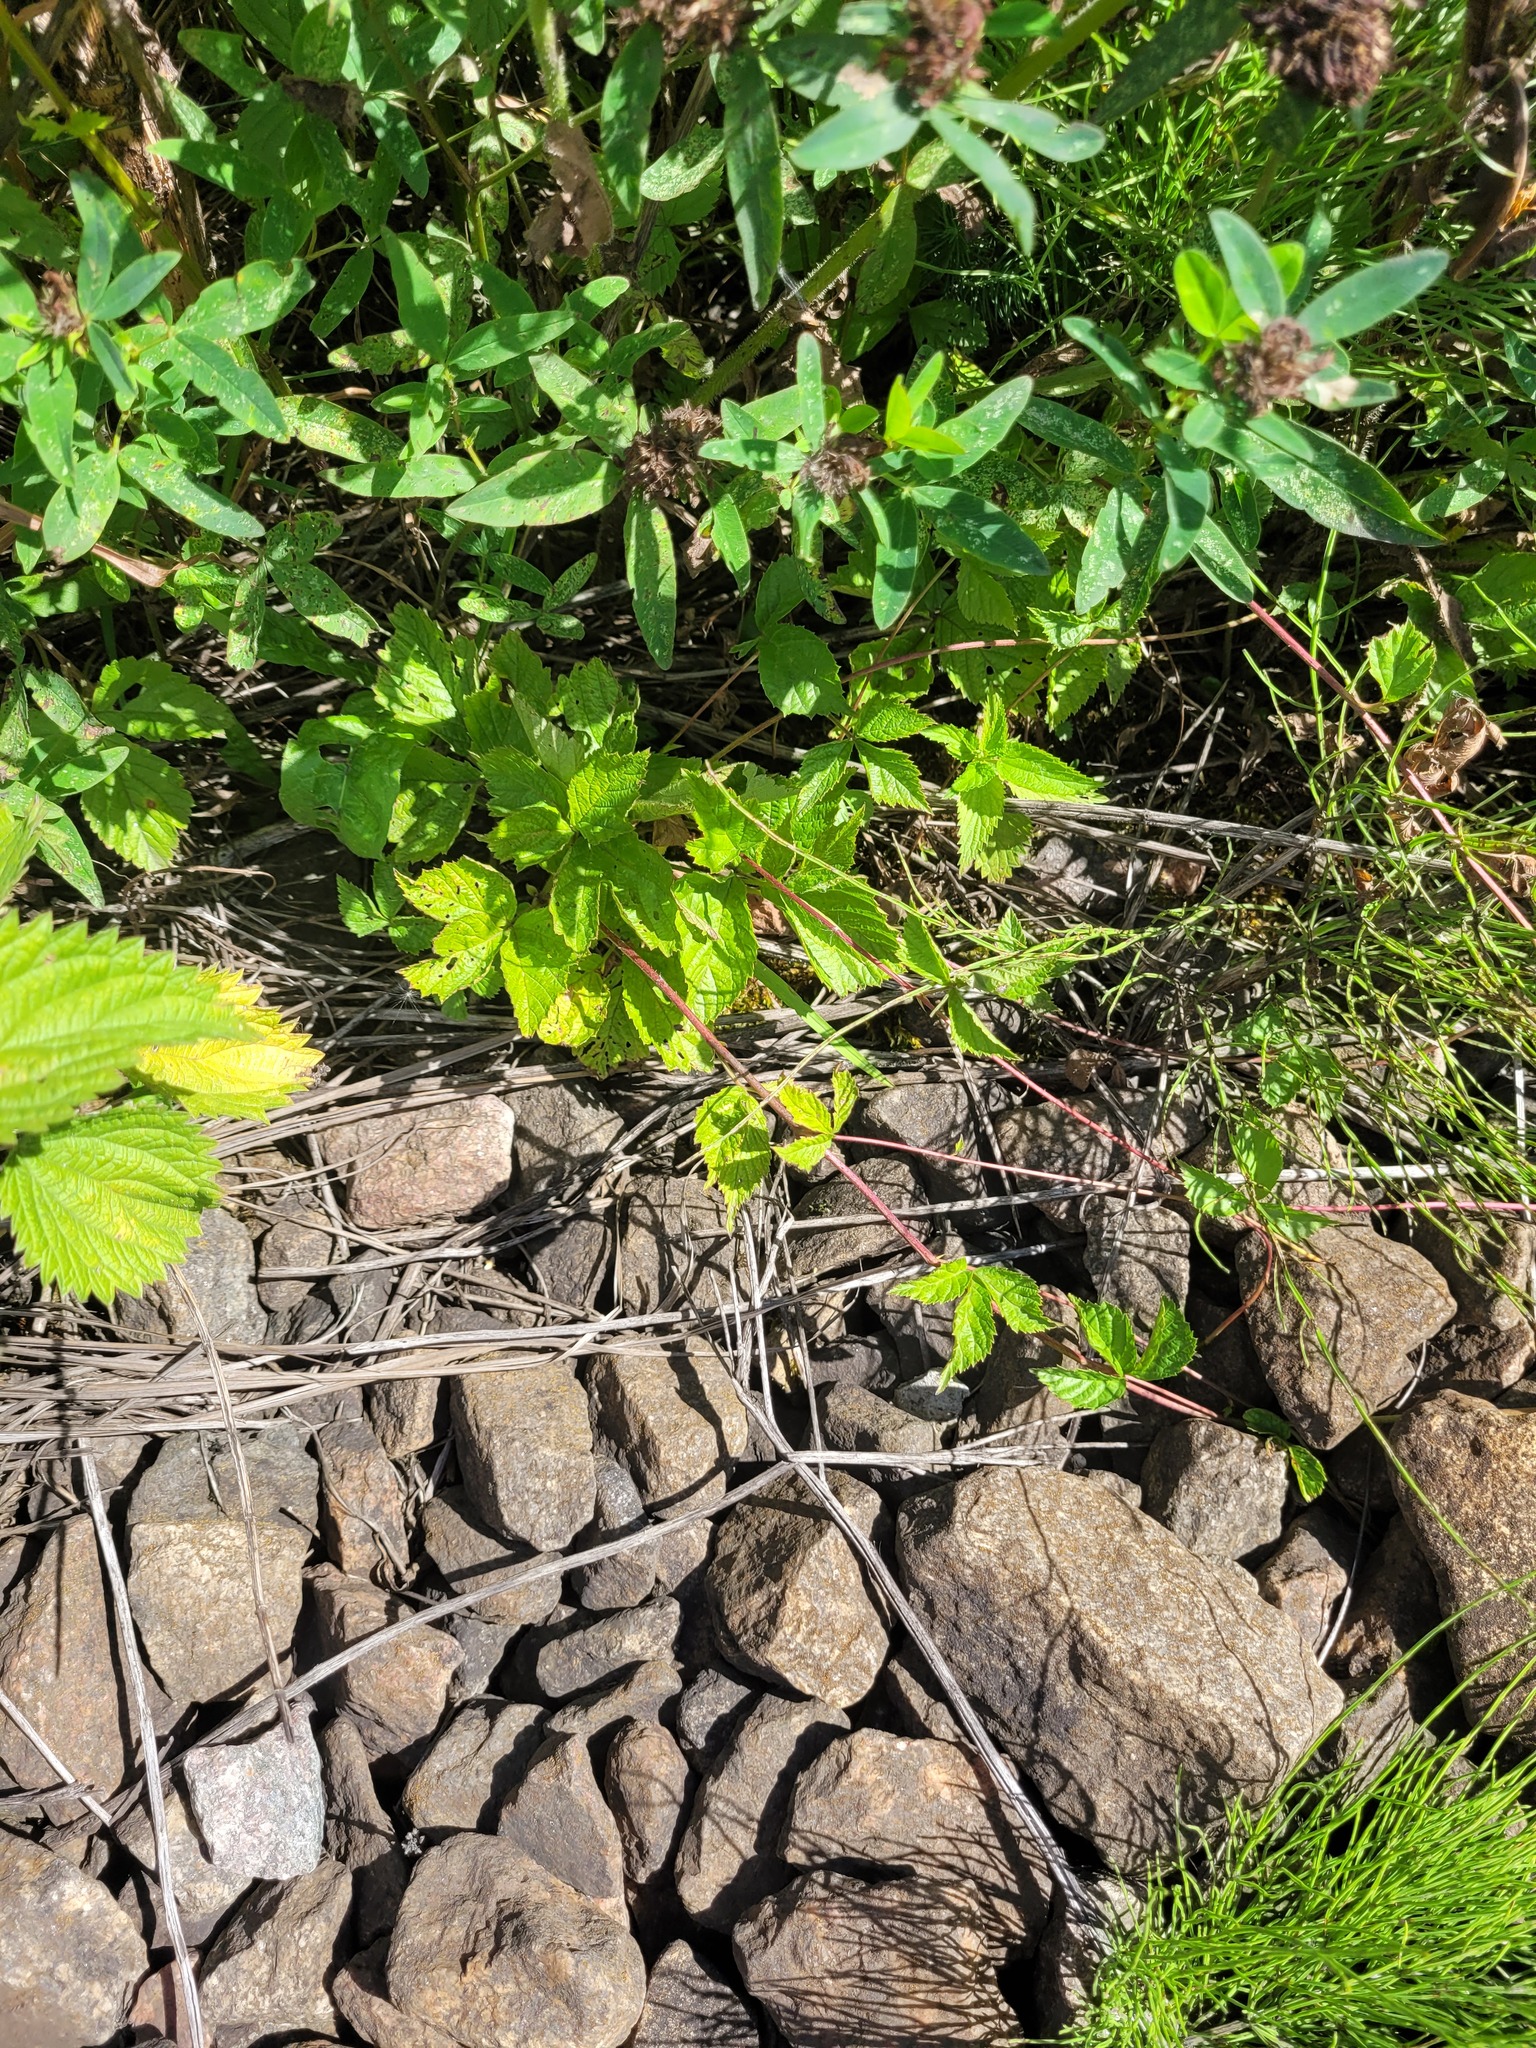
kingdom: Plantae
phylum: Tracheophyta
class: Magnoliopsida
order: Rosales
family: Rosaceae
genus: Rubus
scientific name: Rubus saxatilis
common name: Stone bramble
